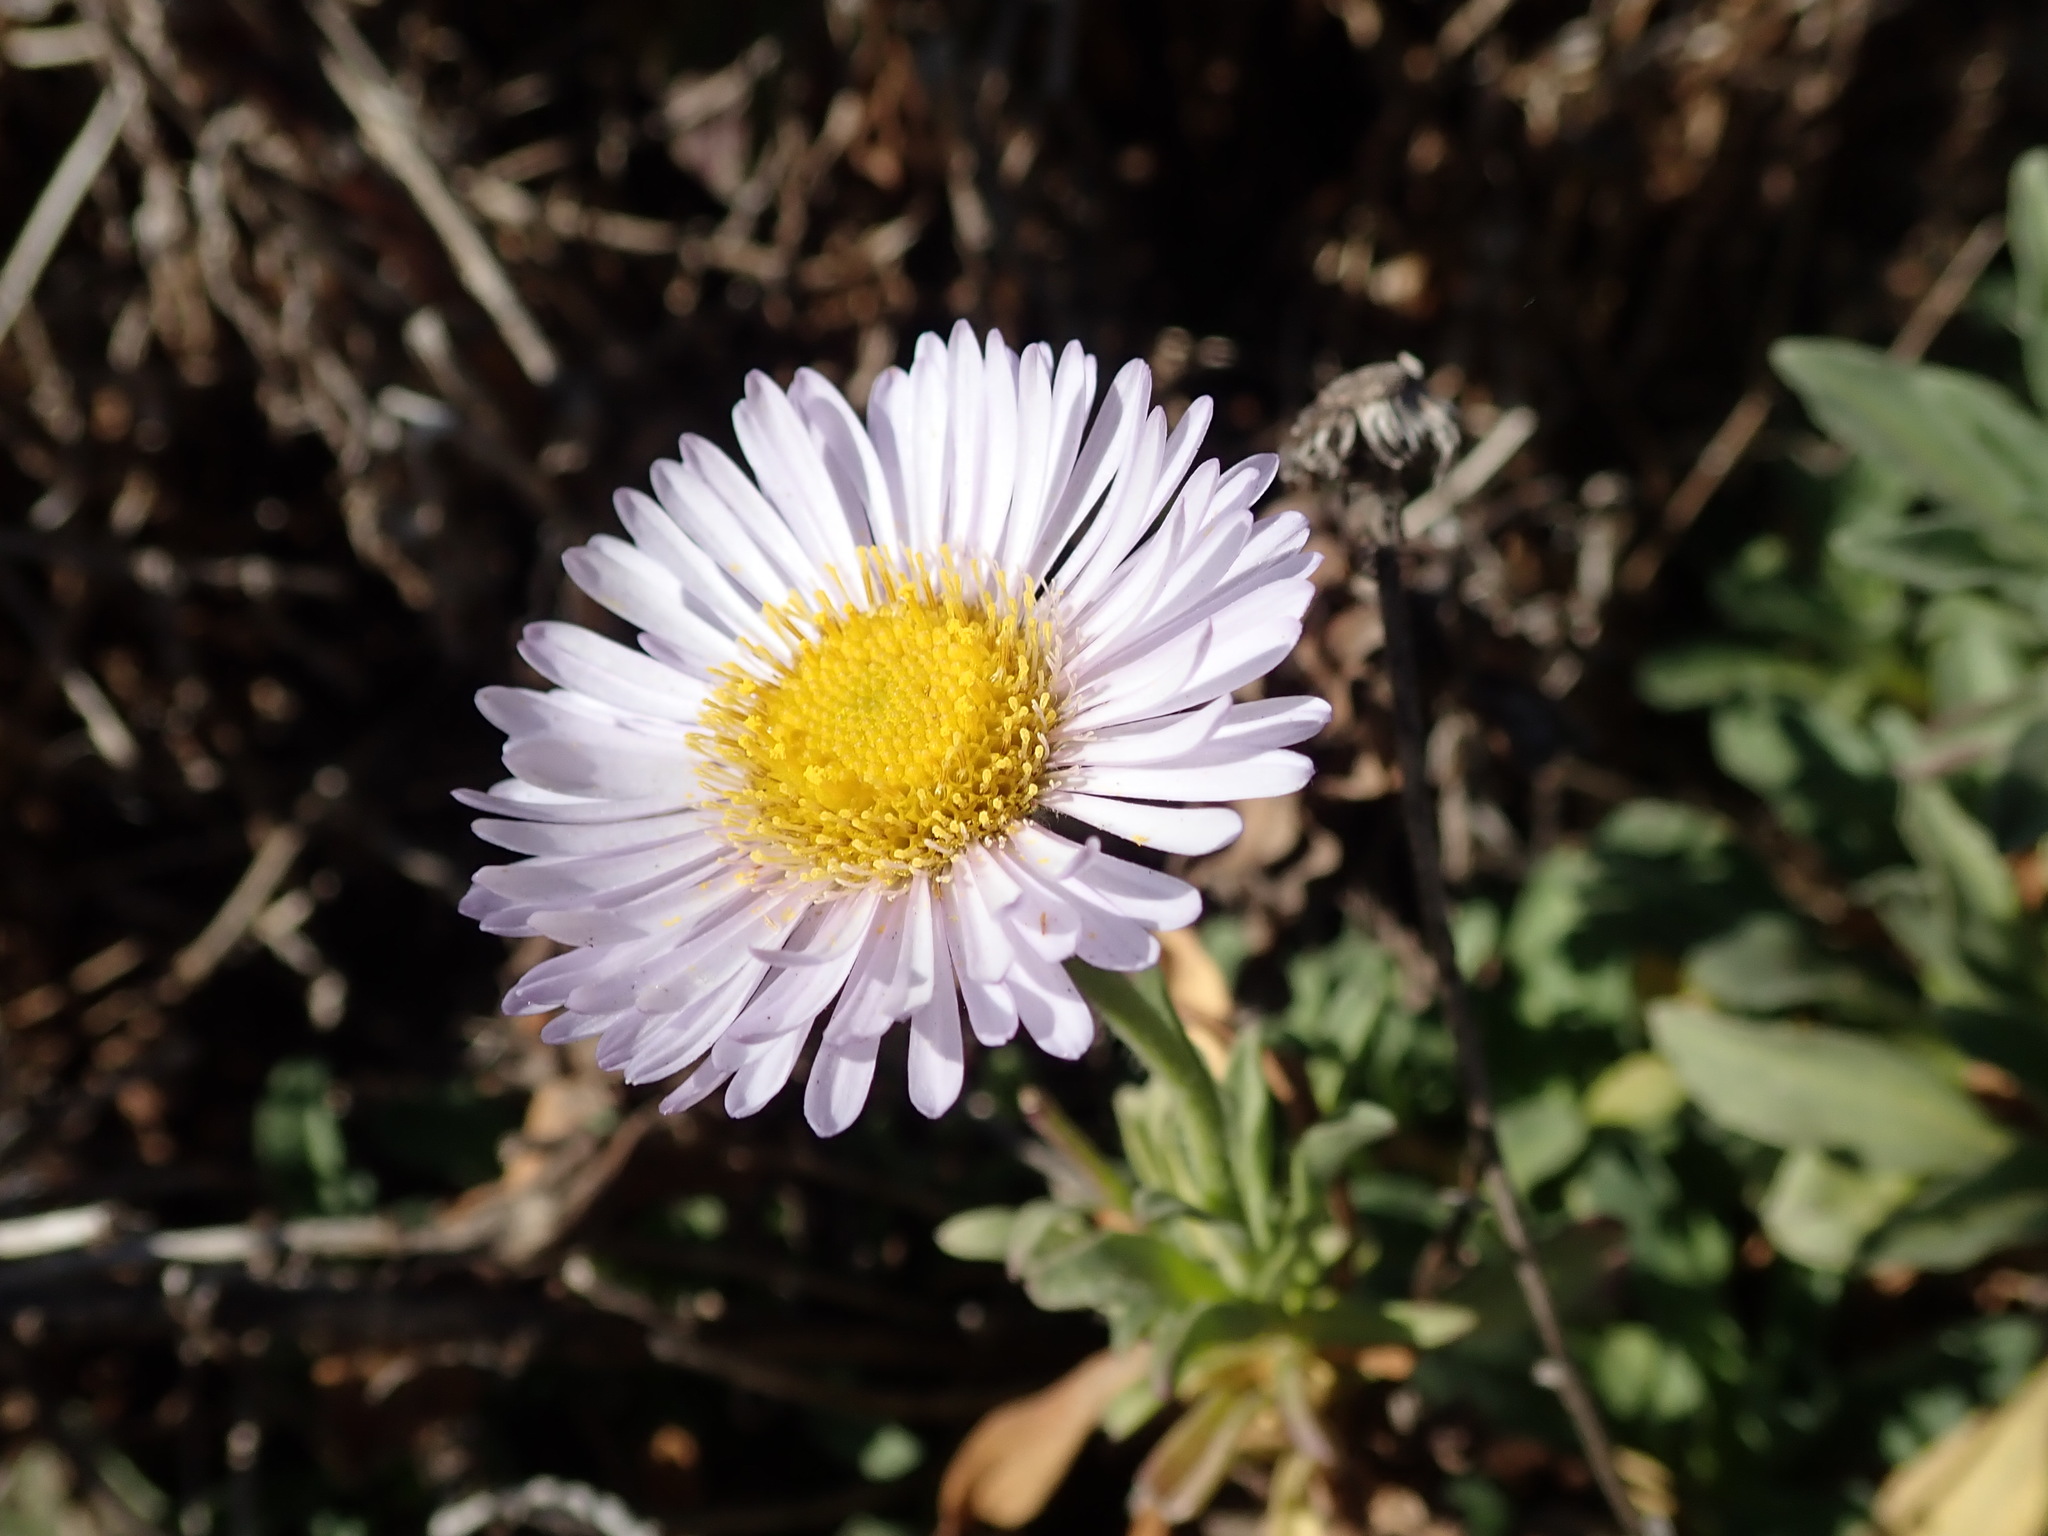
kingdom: Plantae
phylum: Tracheophyta
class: Magnoliopsida
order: Asterales
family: Asteraceae
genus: Erigeron
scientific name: Erigeron glaucus
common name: Seaside daisy
